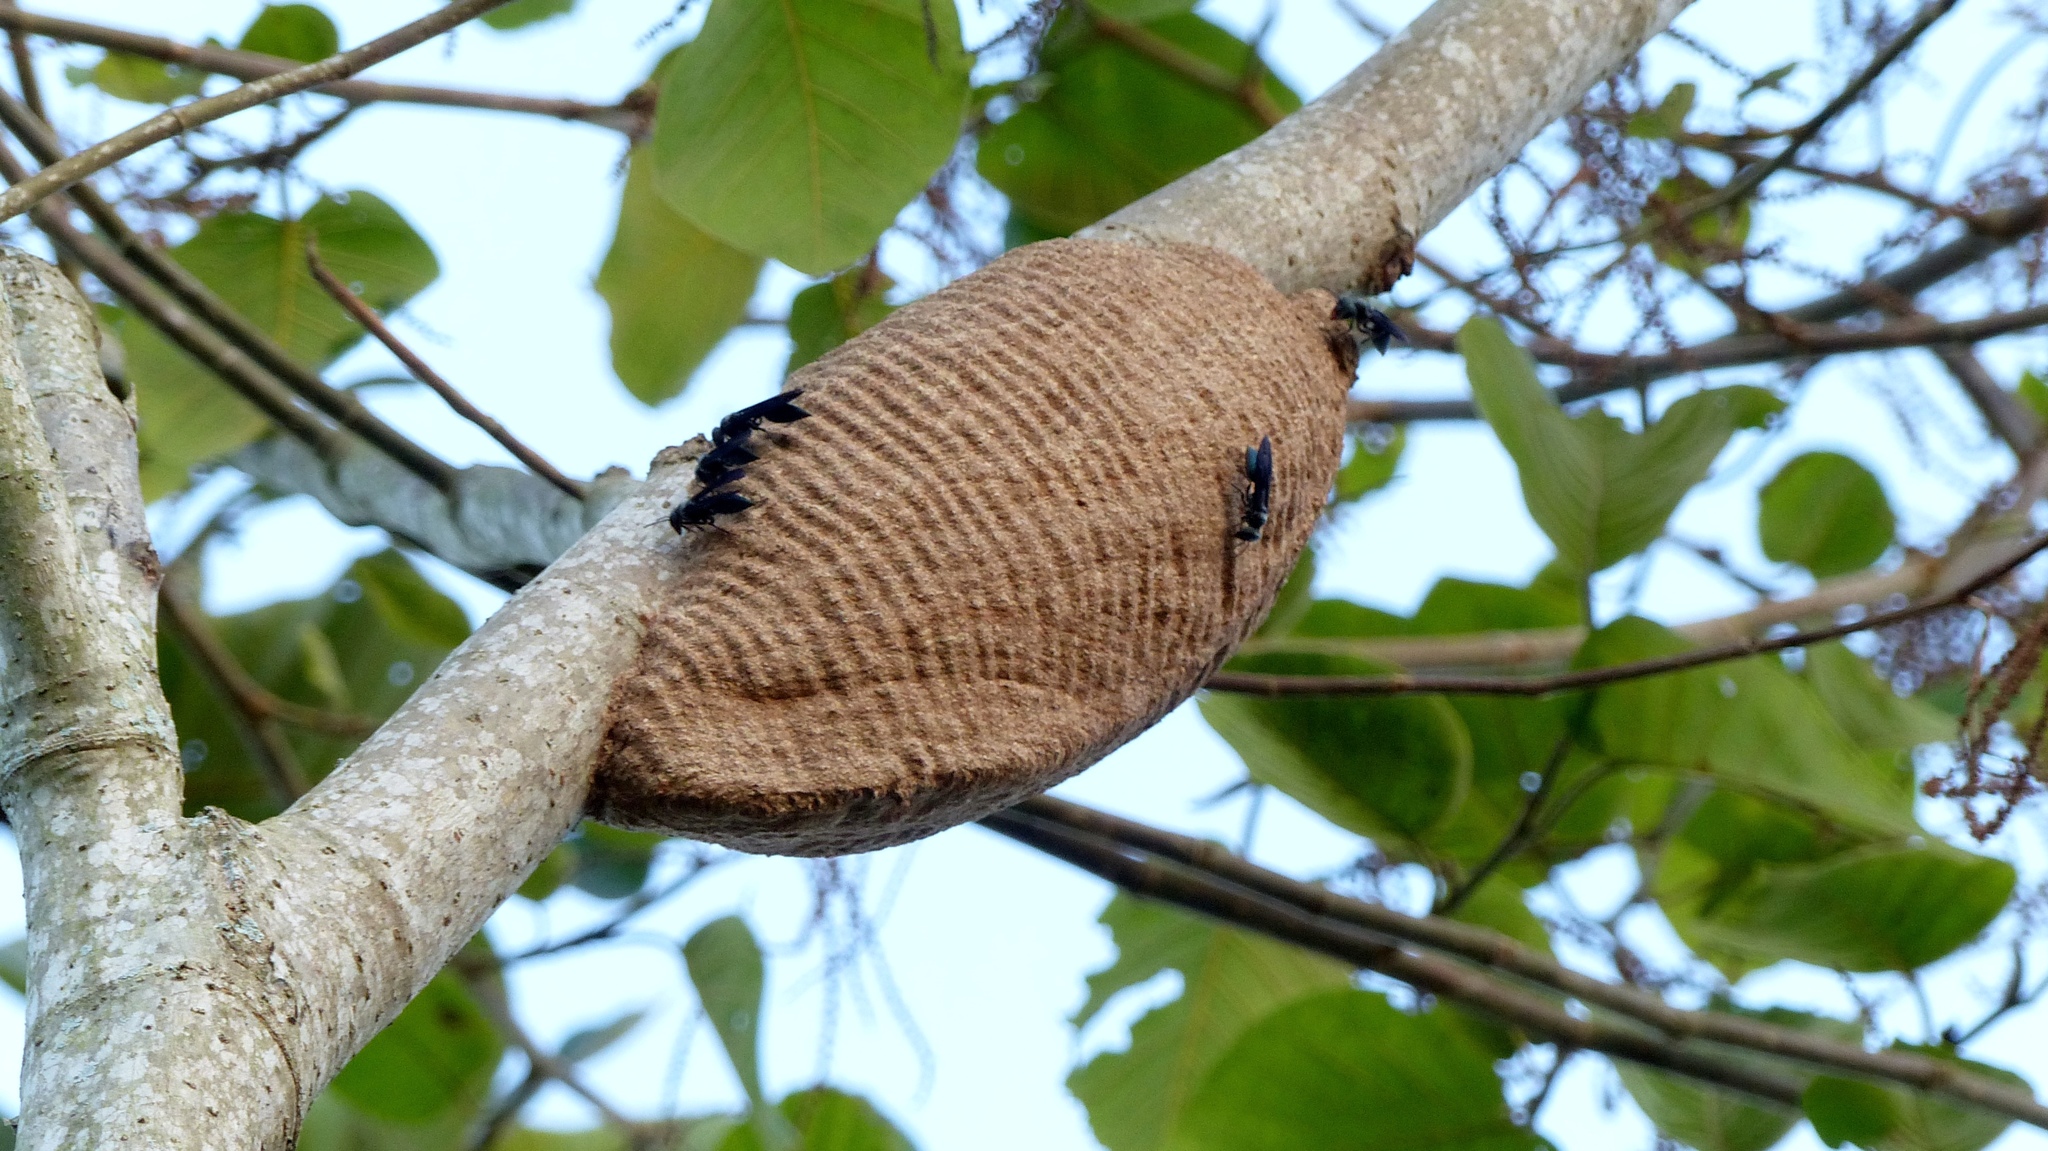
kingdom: Animalia
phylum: Arthropoda
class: Insecta
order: Hymenoptera
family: Vespidae
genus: Synoeca
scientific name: Synoeca cyanea
